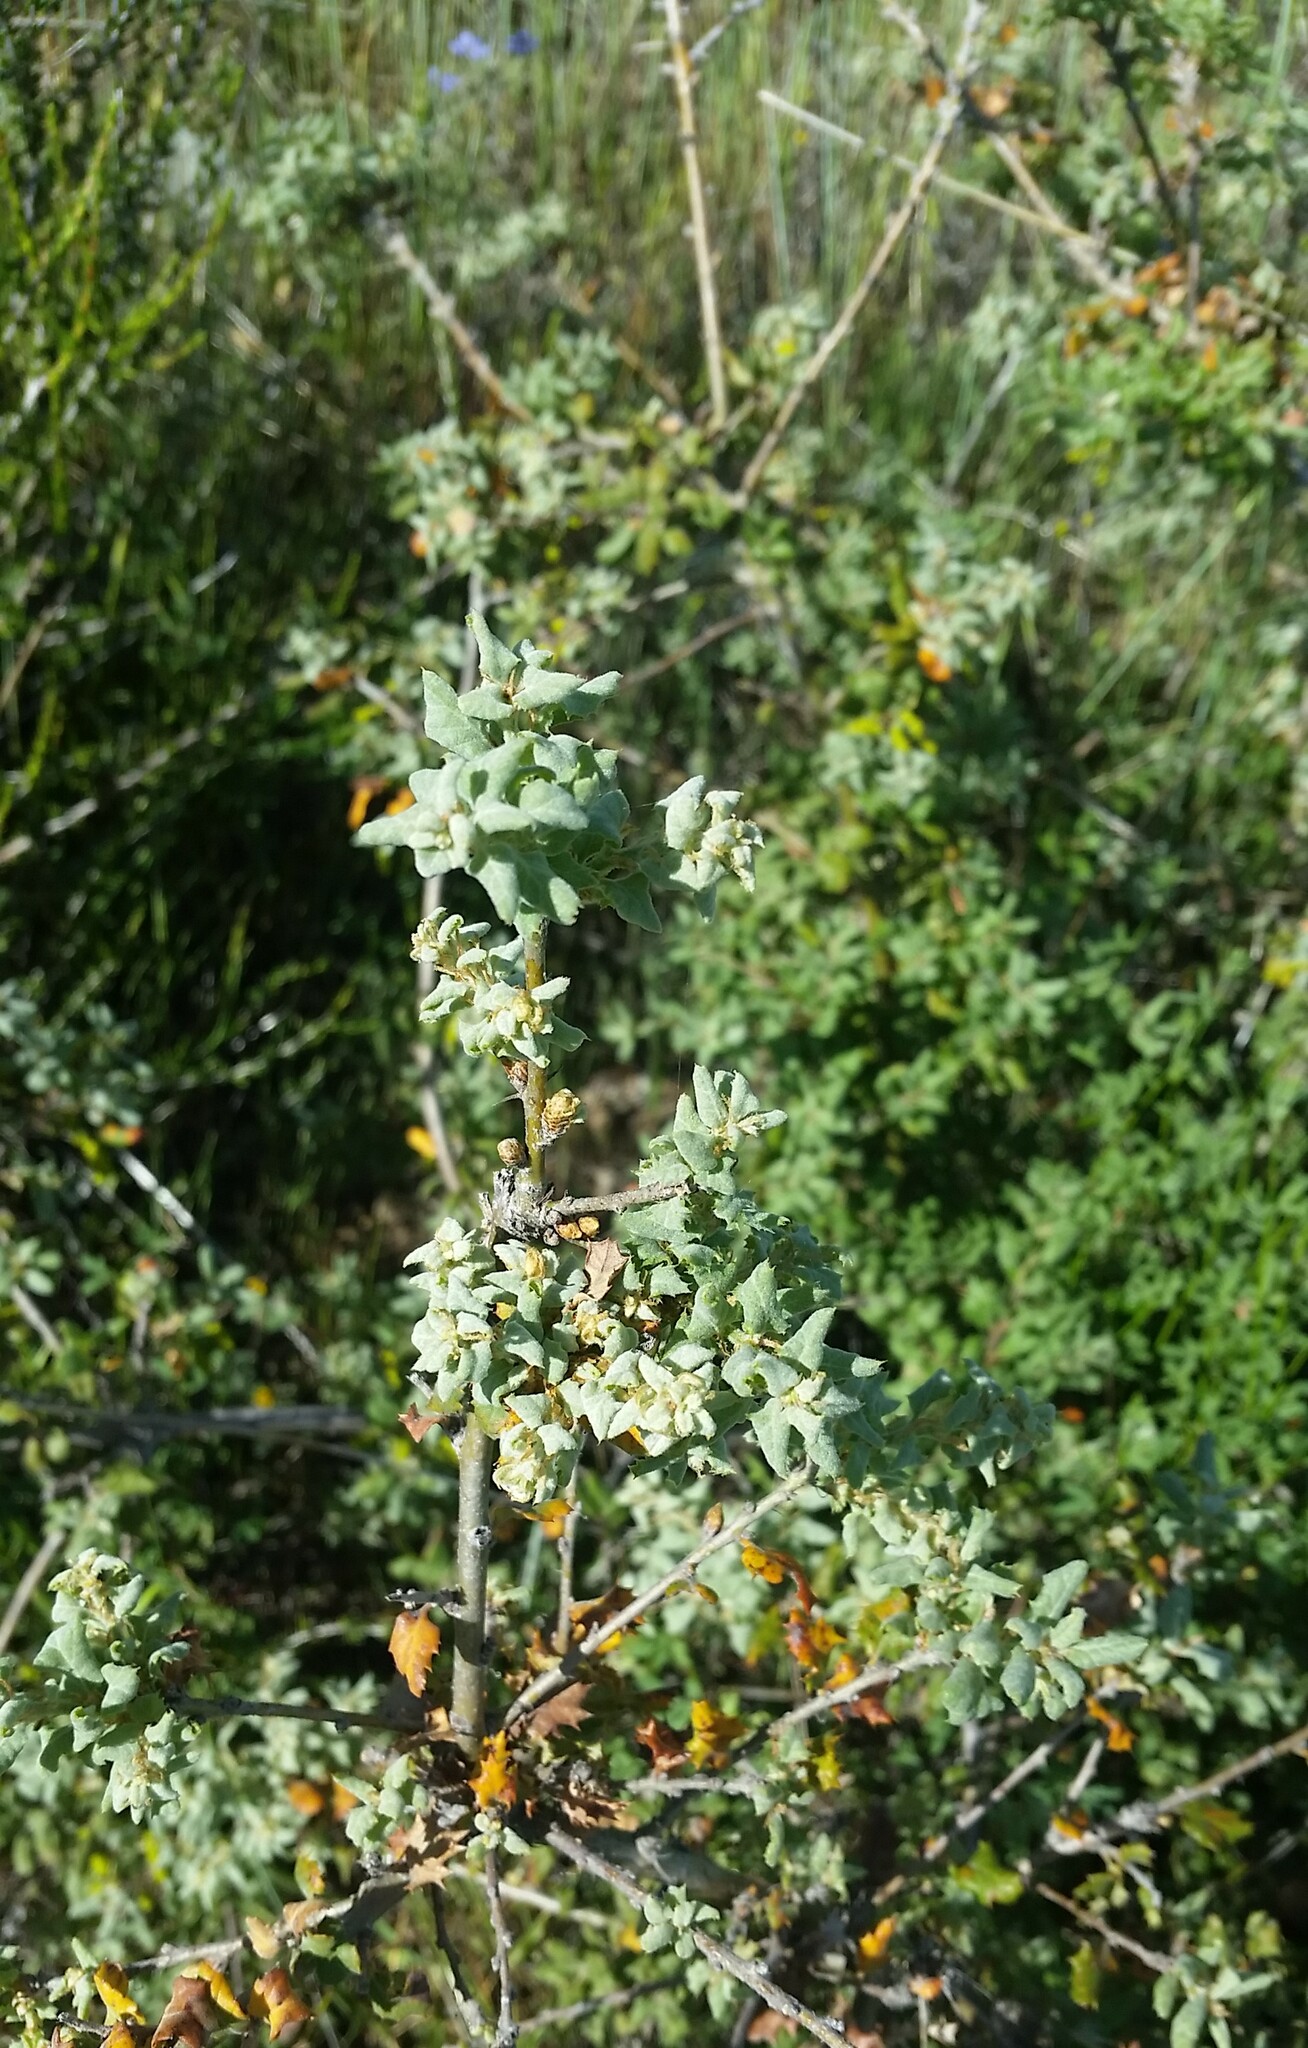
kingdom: Plantae
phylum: Tracheophyta
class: Magnoliopsida
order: Fagales
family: Fagaceae
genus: Quercus
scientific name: Quercus durata
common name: Leather oak
